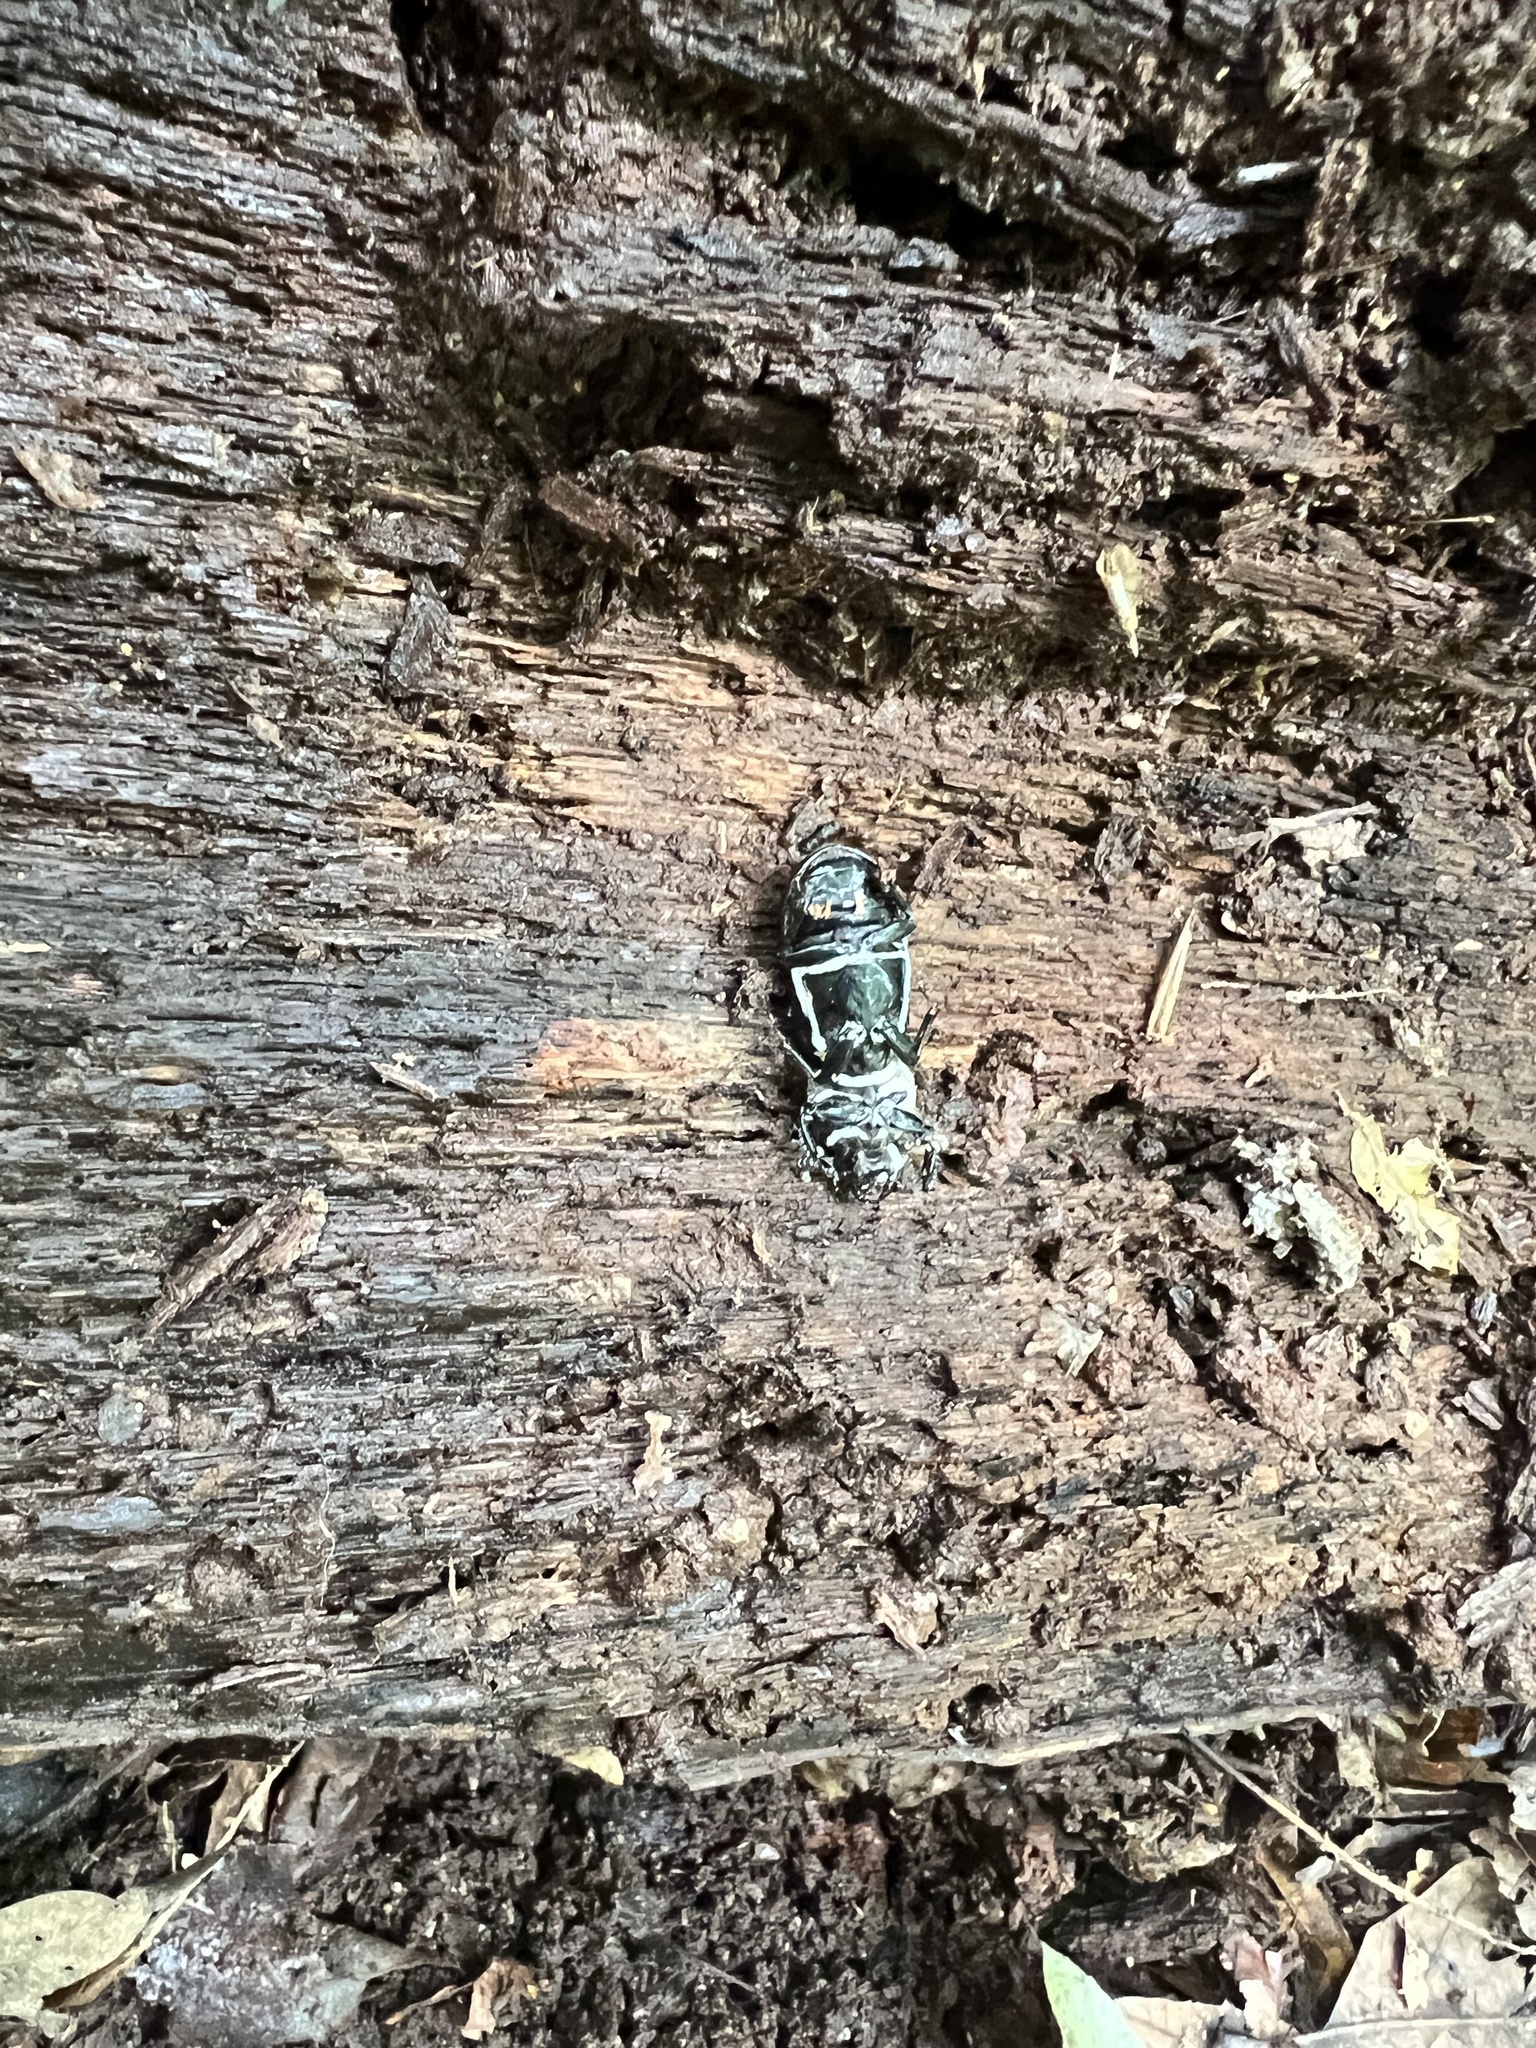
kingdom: Animalia
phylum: Arthropoda
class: Insecta
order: Coleoptera
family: Passalidae
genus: Odontotaenius
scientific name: Odontotaenius disjunctus
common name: Patent leather beetle
